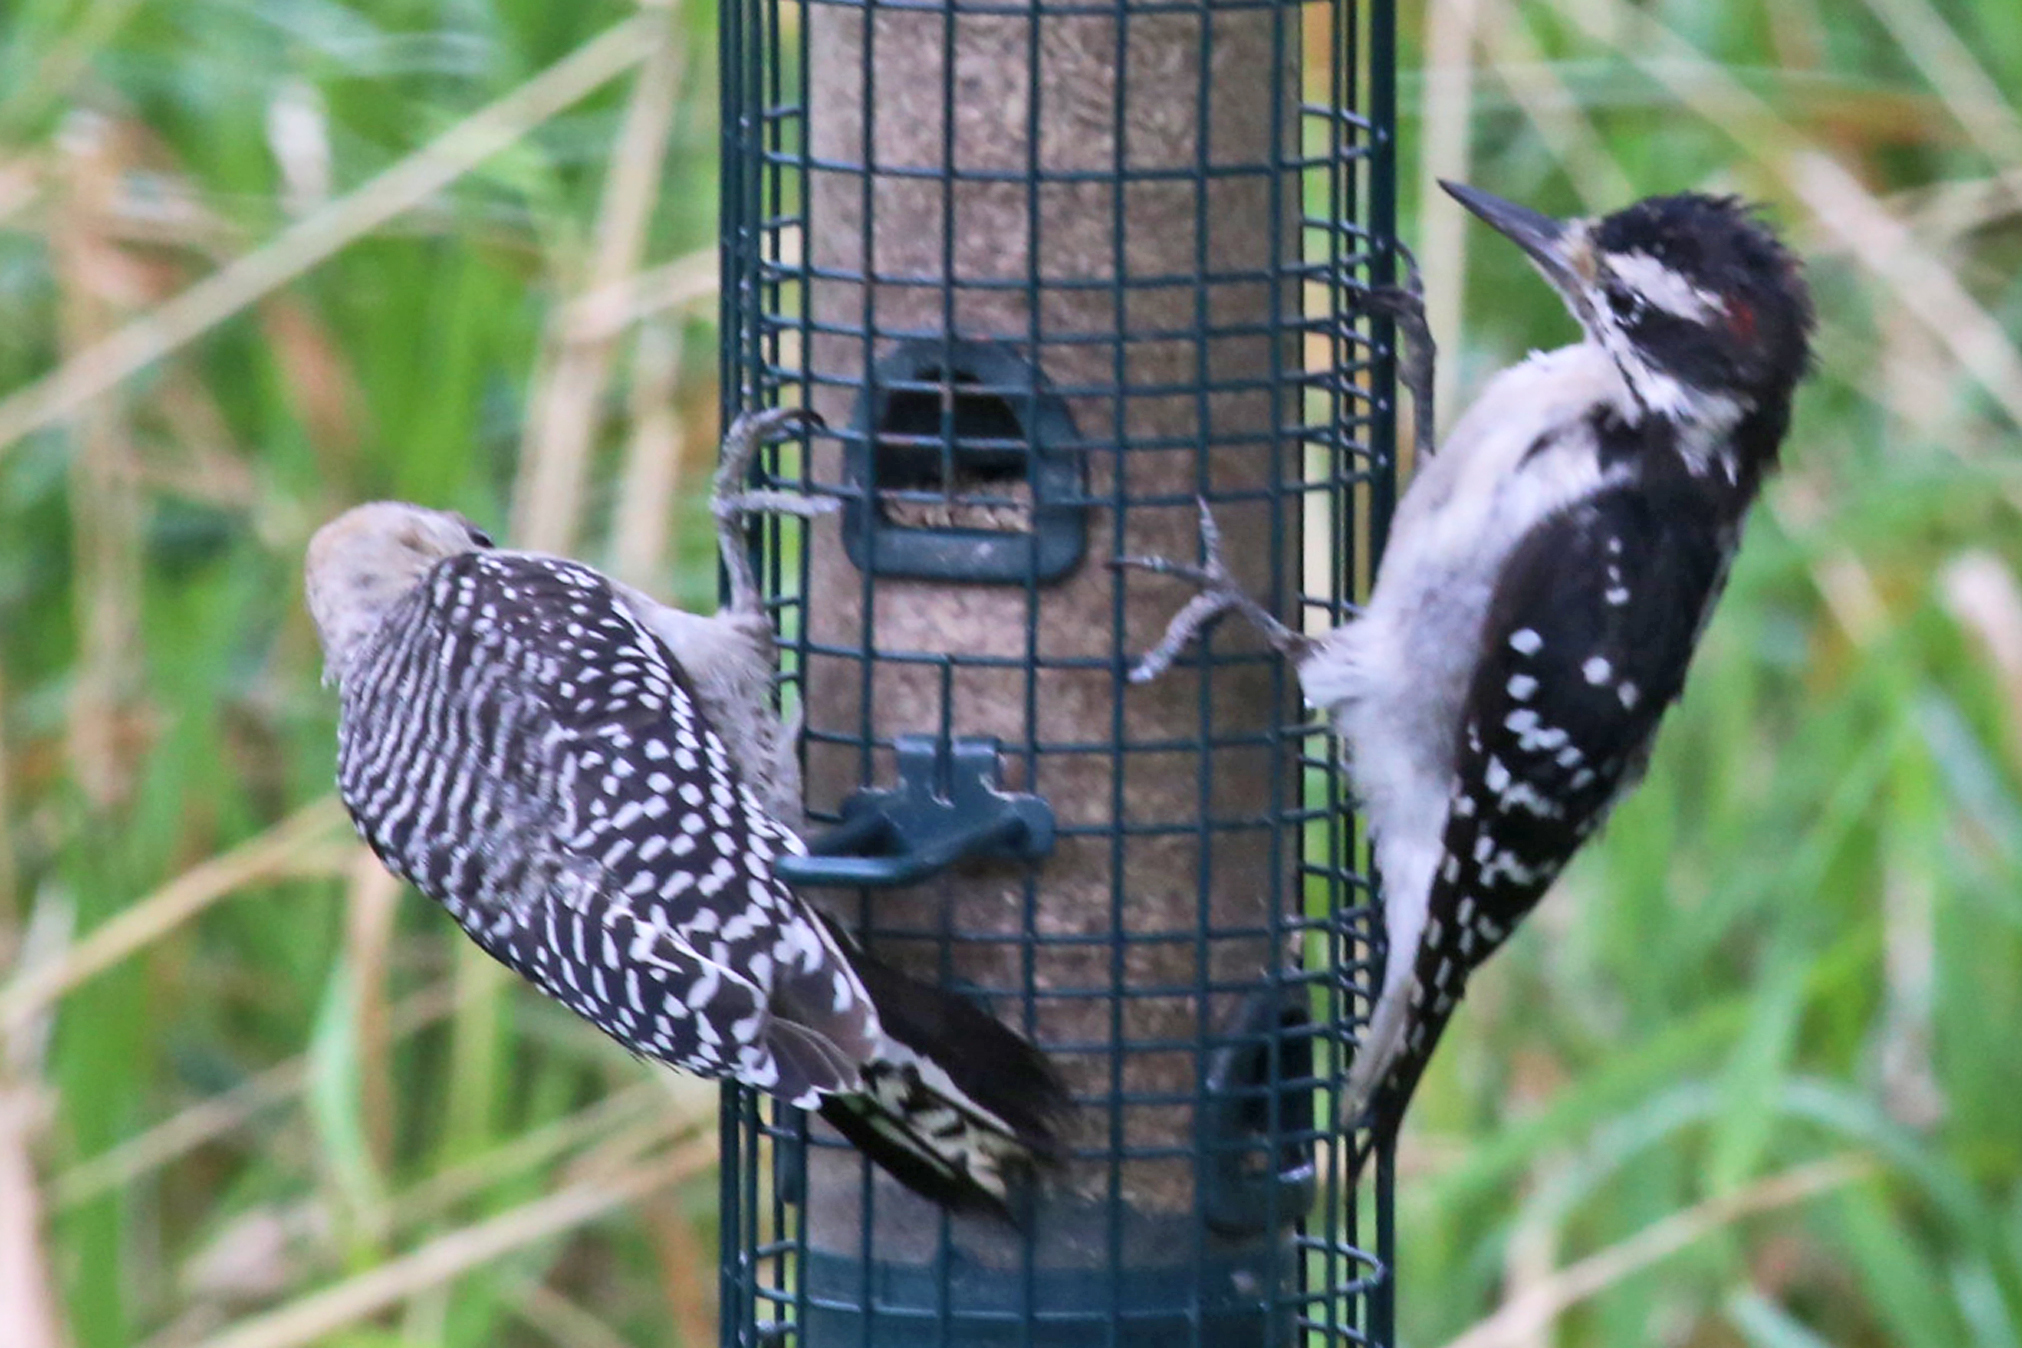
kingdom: Animalia
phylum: Chordata
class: Aves
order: Piciformes
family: Picidae
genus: Leuconotopicus
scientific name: Leuconotopicus villosus
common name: Hairy woodpecker
